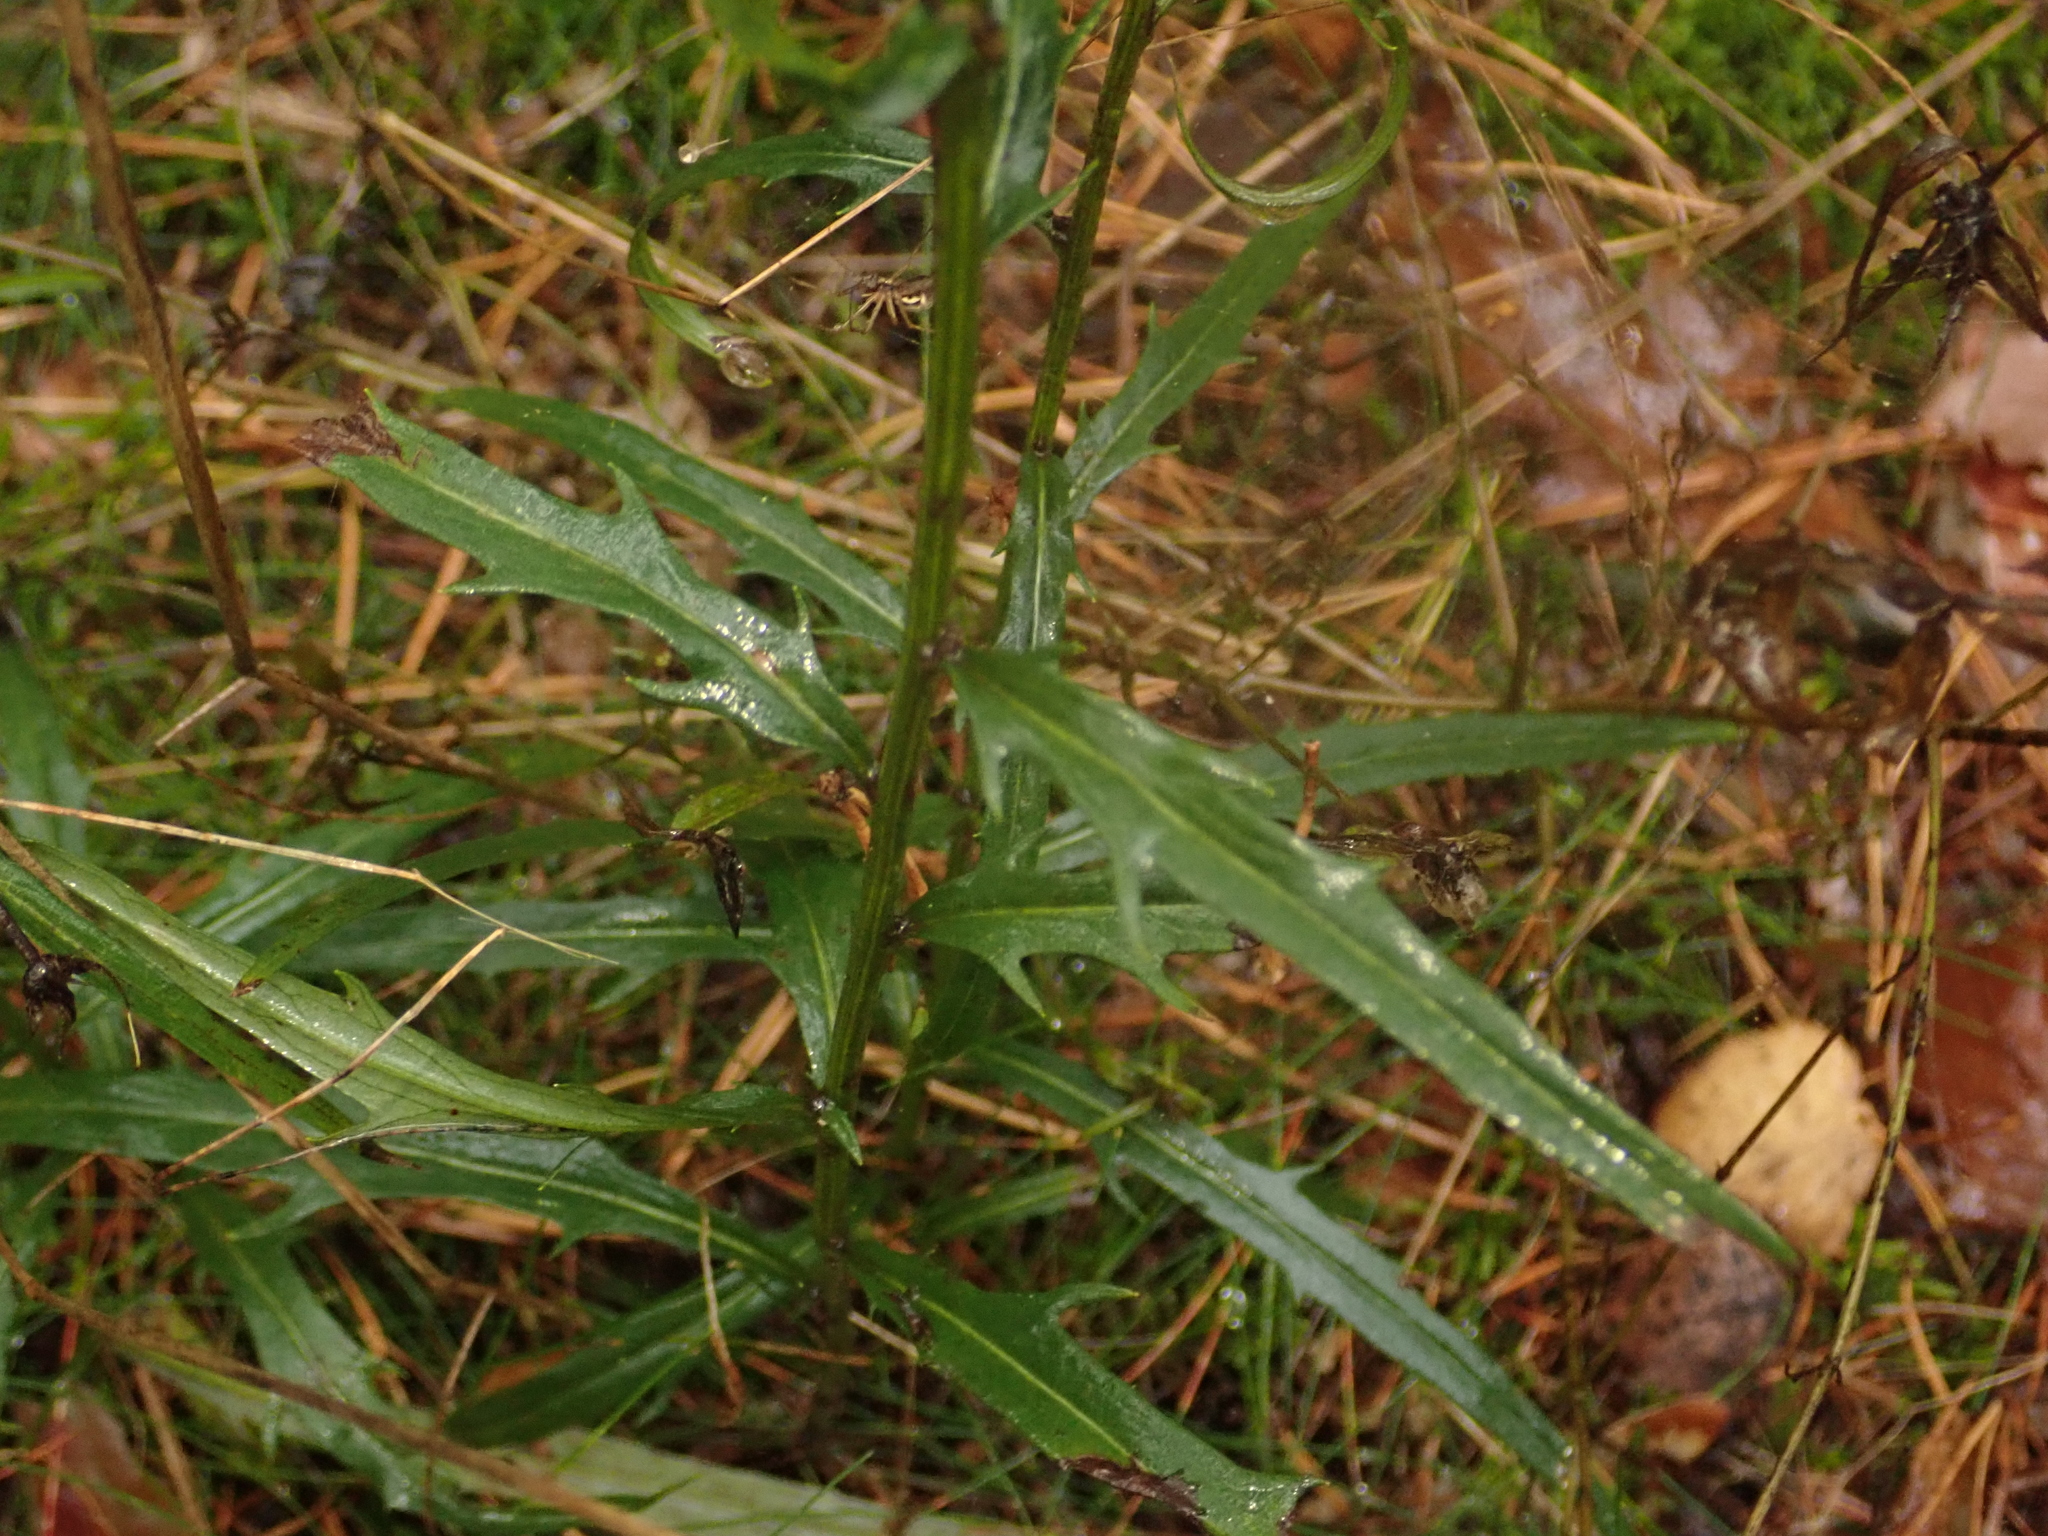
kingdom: Plantae
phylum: Tracheophyta
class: Magnoliopsida
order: Asterales
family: Campanulaceae
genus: Campanula
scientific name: Campanula persicifolia
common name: Peach-leaved bellflower
